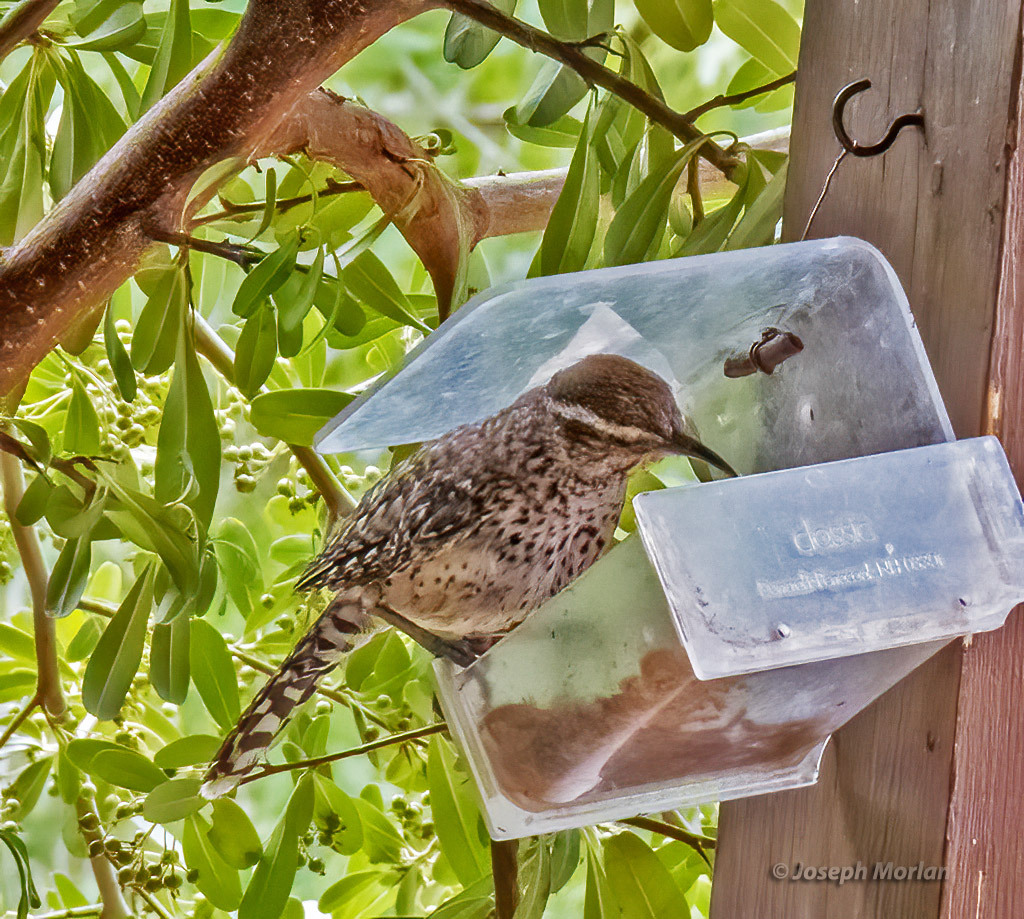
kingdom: Animalia
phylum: Chordata
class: Aves
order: Passeriformes
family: Troglodytidae
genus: Campylorhynchus
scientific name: Campylorhynchus brunneicapillus
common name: Cactus wren
